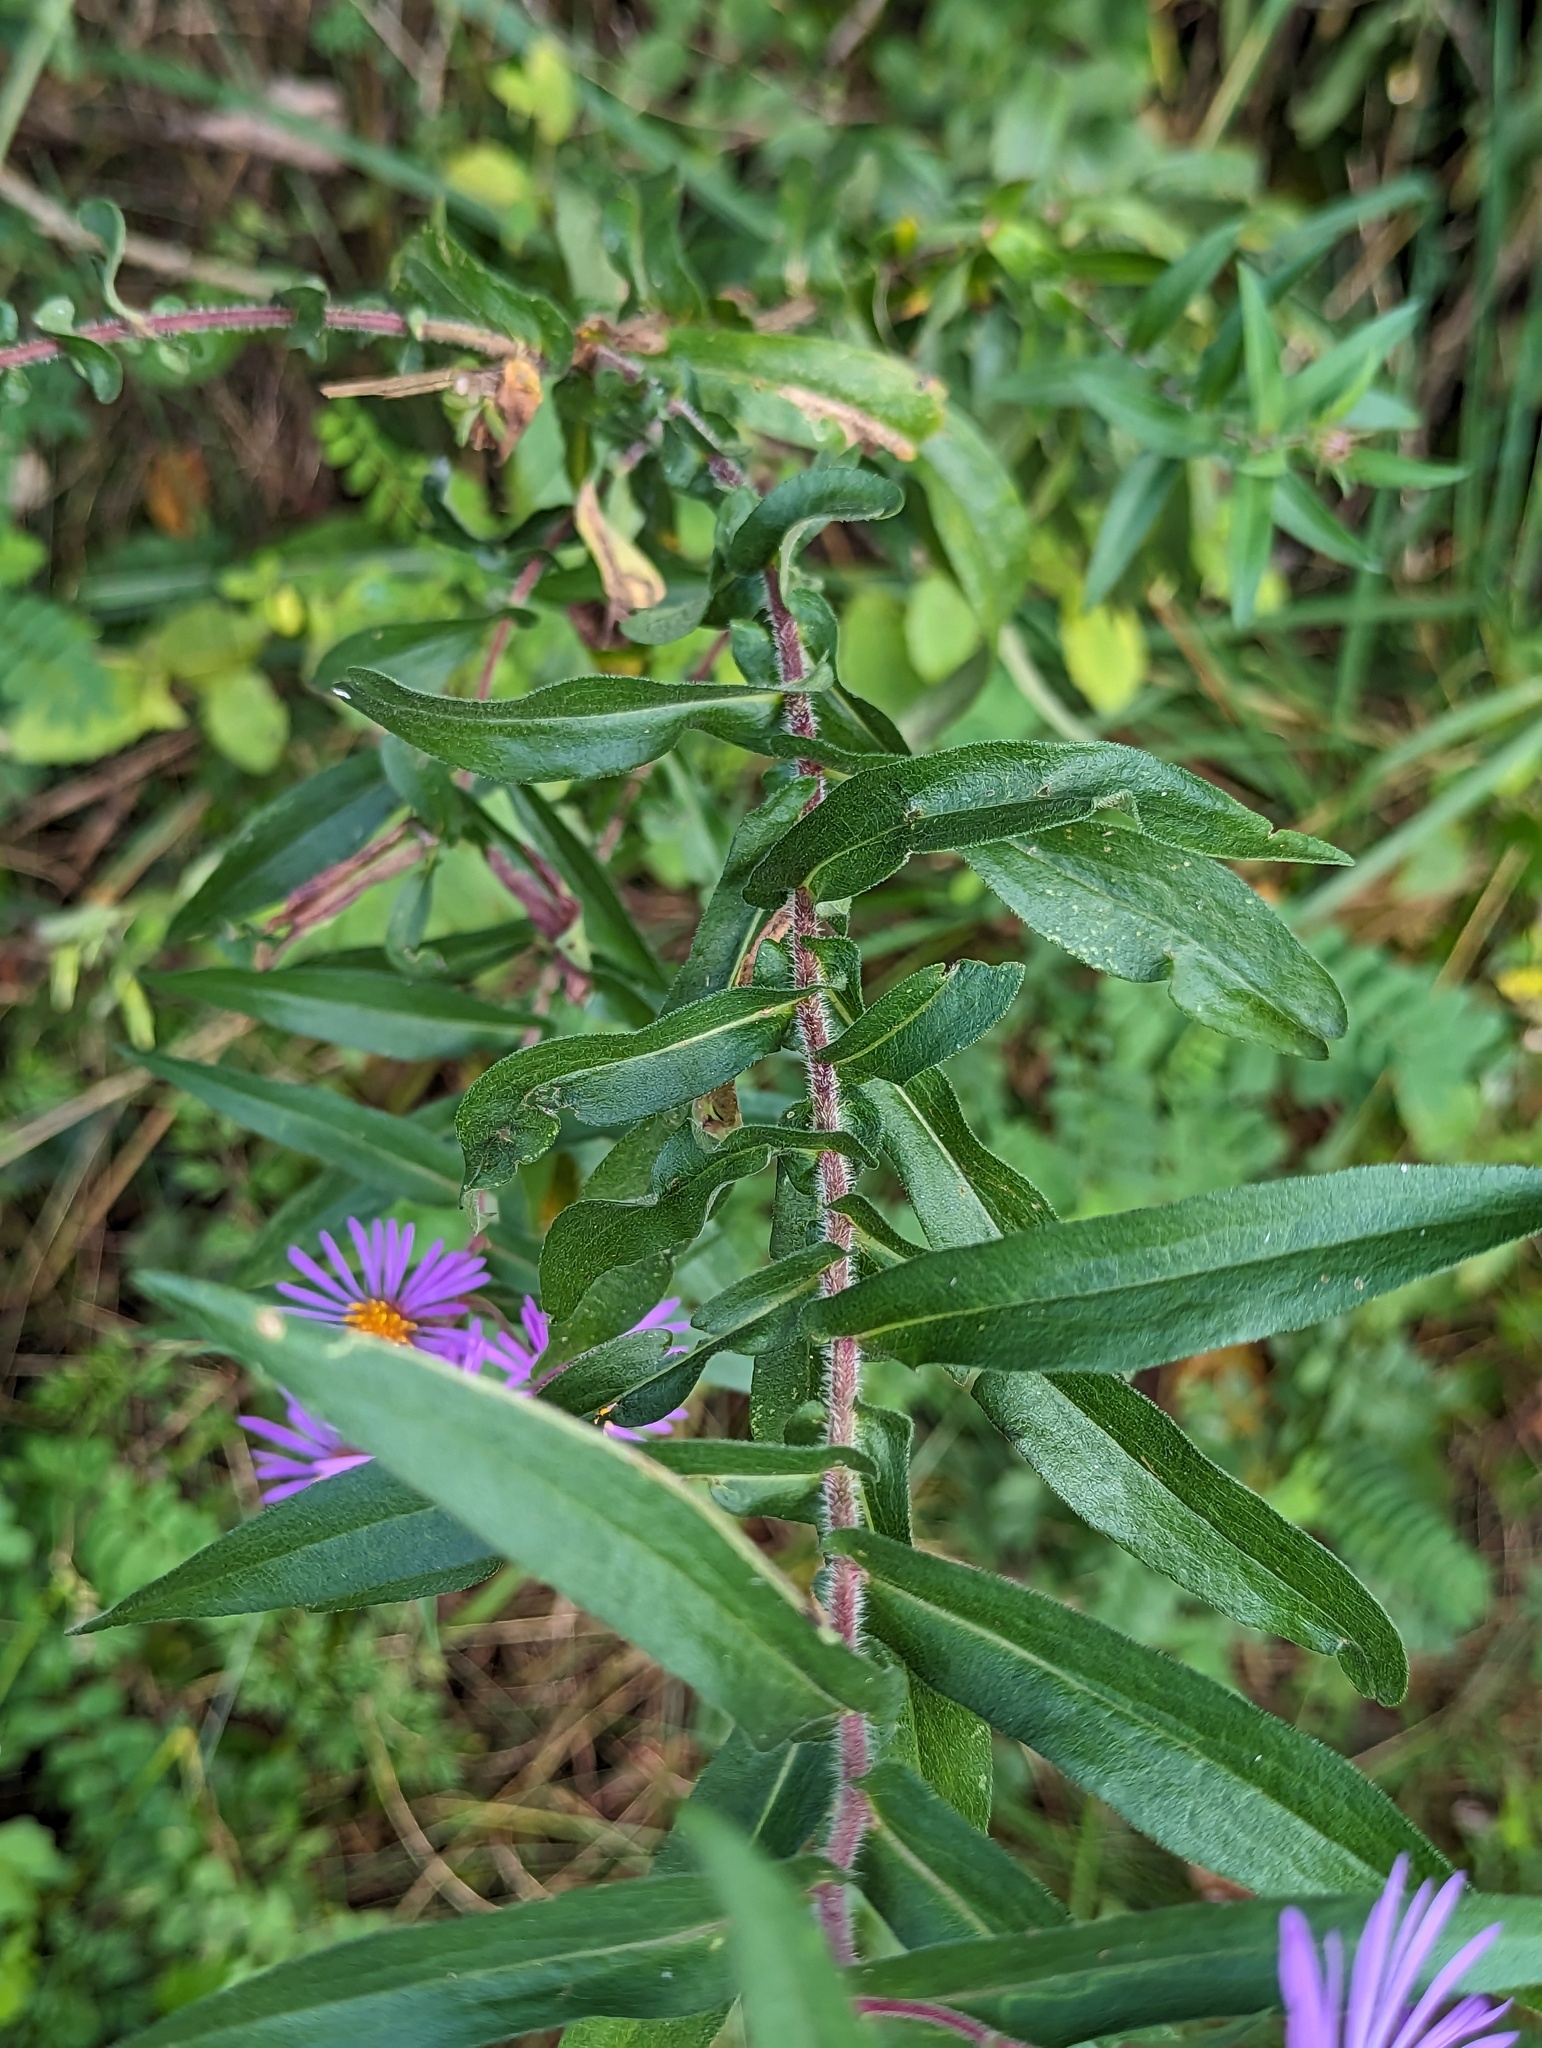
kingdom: Plantae
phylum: Tracheophyta
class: Magnoliopsida
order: Asterales
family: Asteraceae
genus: Symphyotrichum
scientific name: Symphyotrichum novae-angliae
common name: Michaelmas daisy
